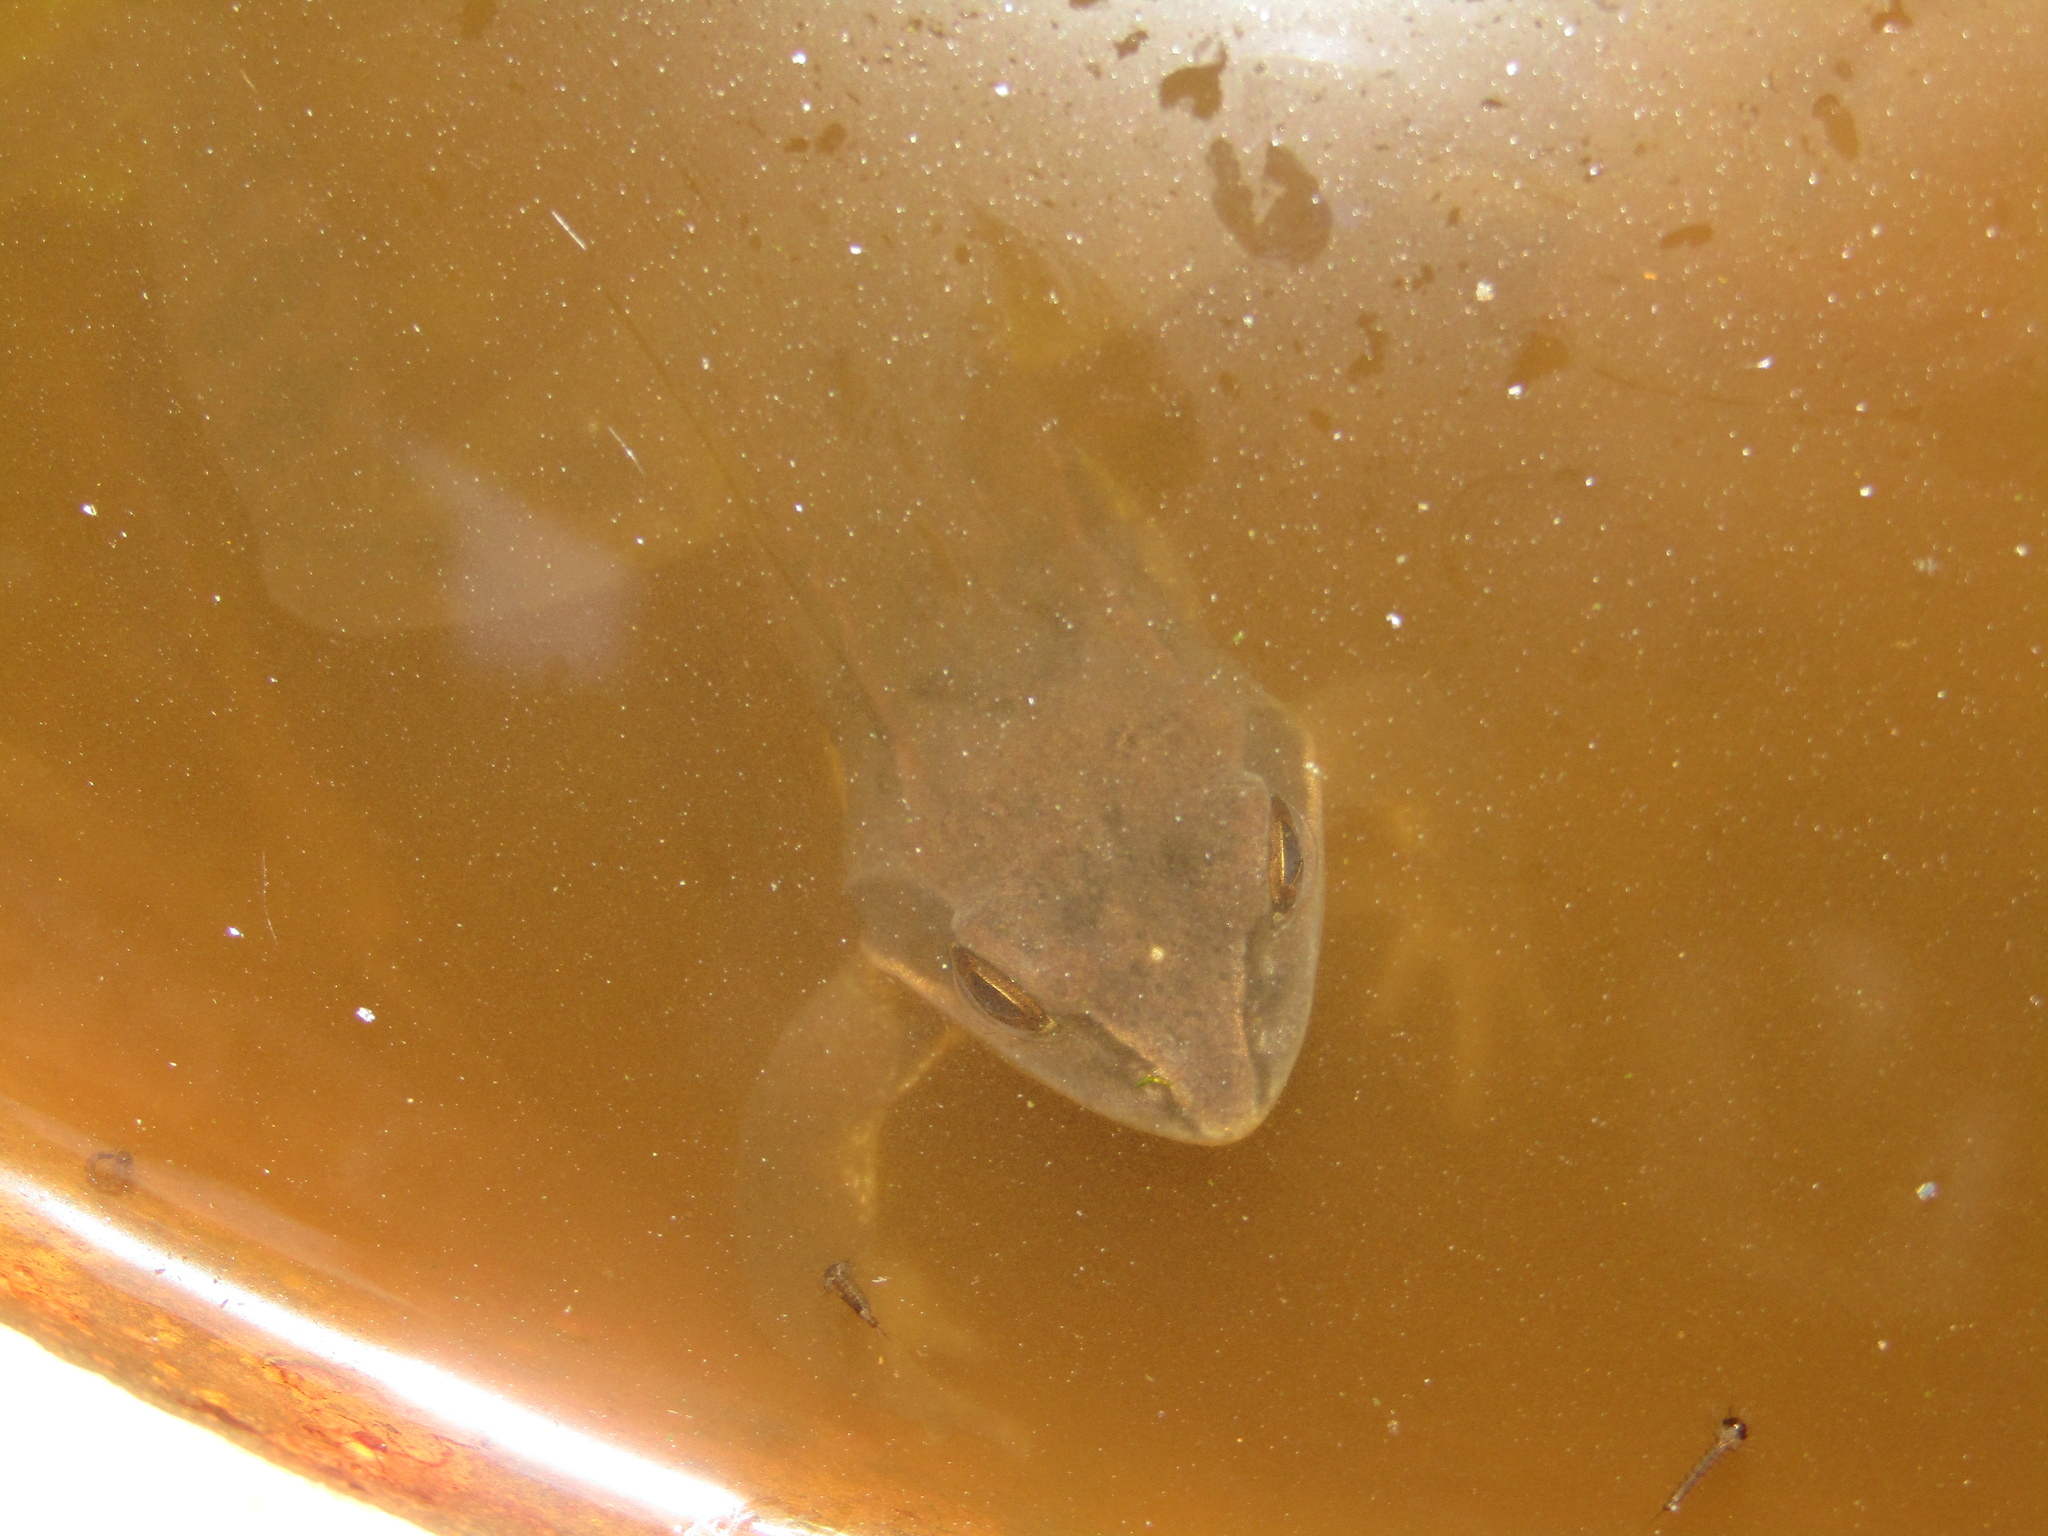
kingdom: Animalia
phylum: Chordata
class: Amphibia
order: Anura
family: Ranidae
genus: Rana
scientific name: Rana arvalis
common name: Moor frog
